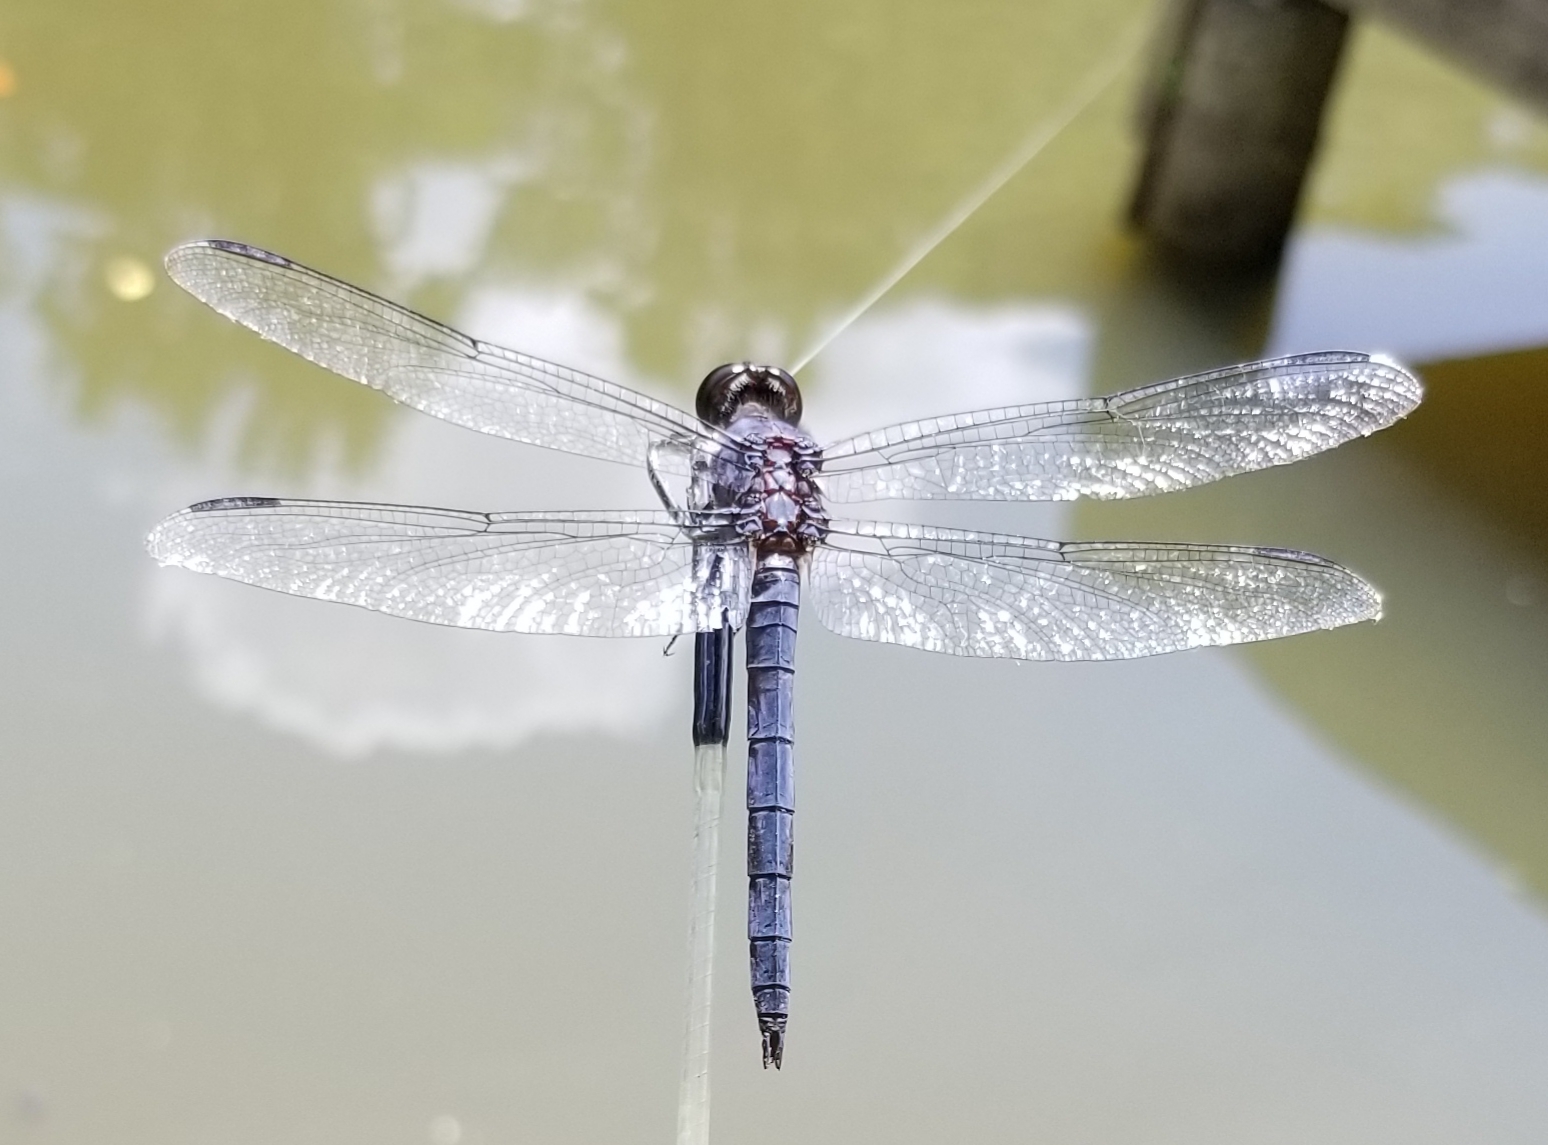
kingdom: Animalia
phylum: Arthropoda
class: Insecta
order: Odonata
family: Libellulidae
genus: Libellula
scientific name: Libellula incesta
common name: Slaty skimmer
